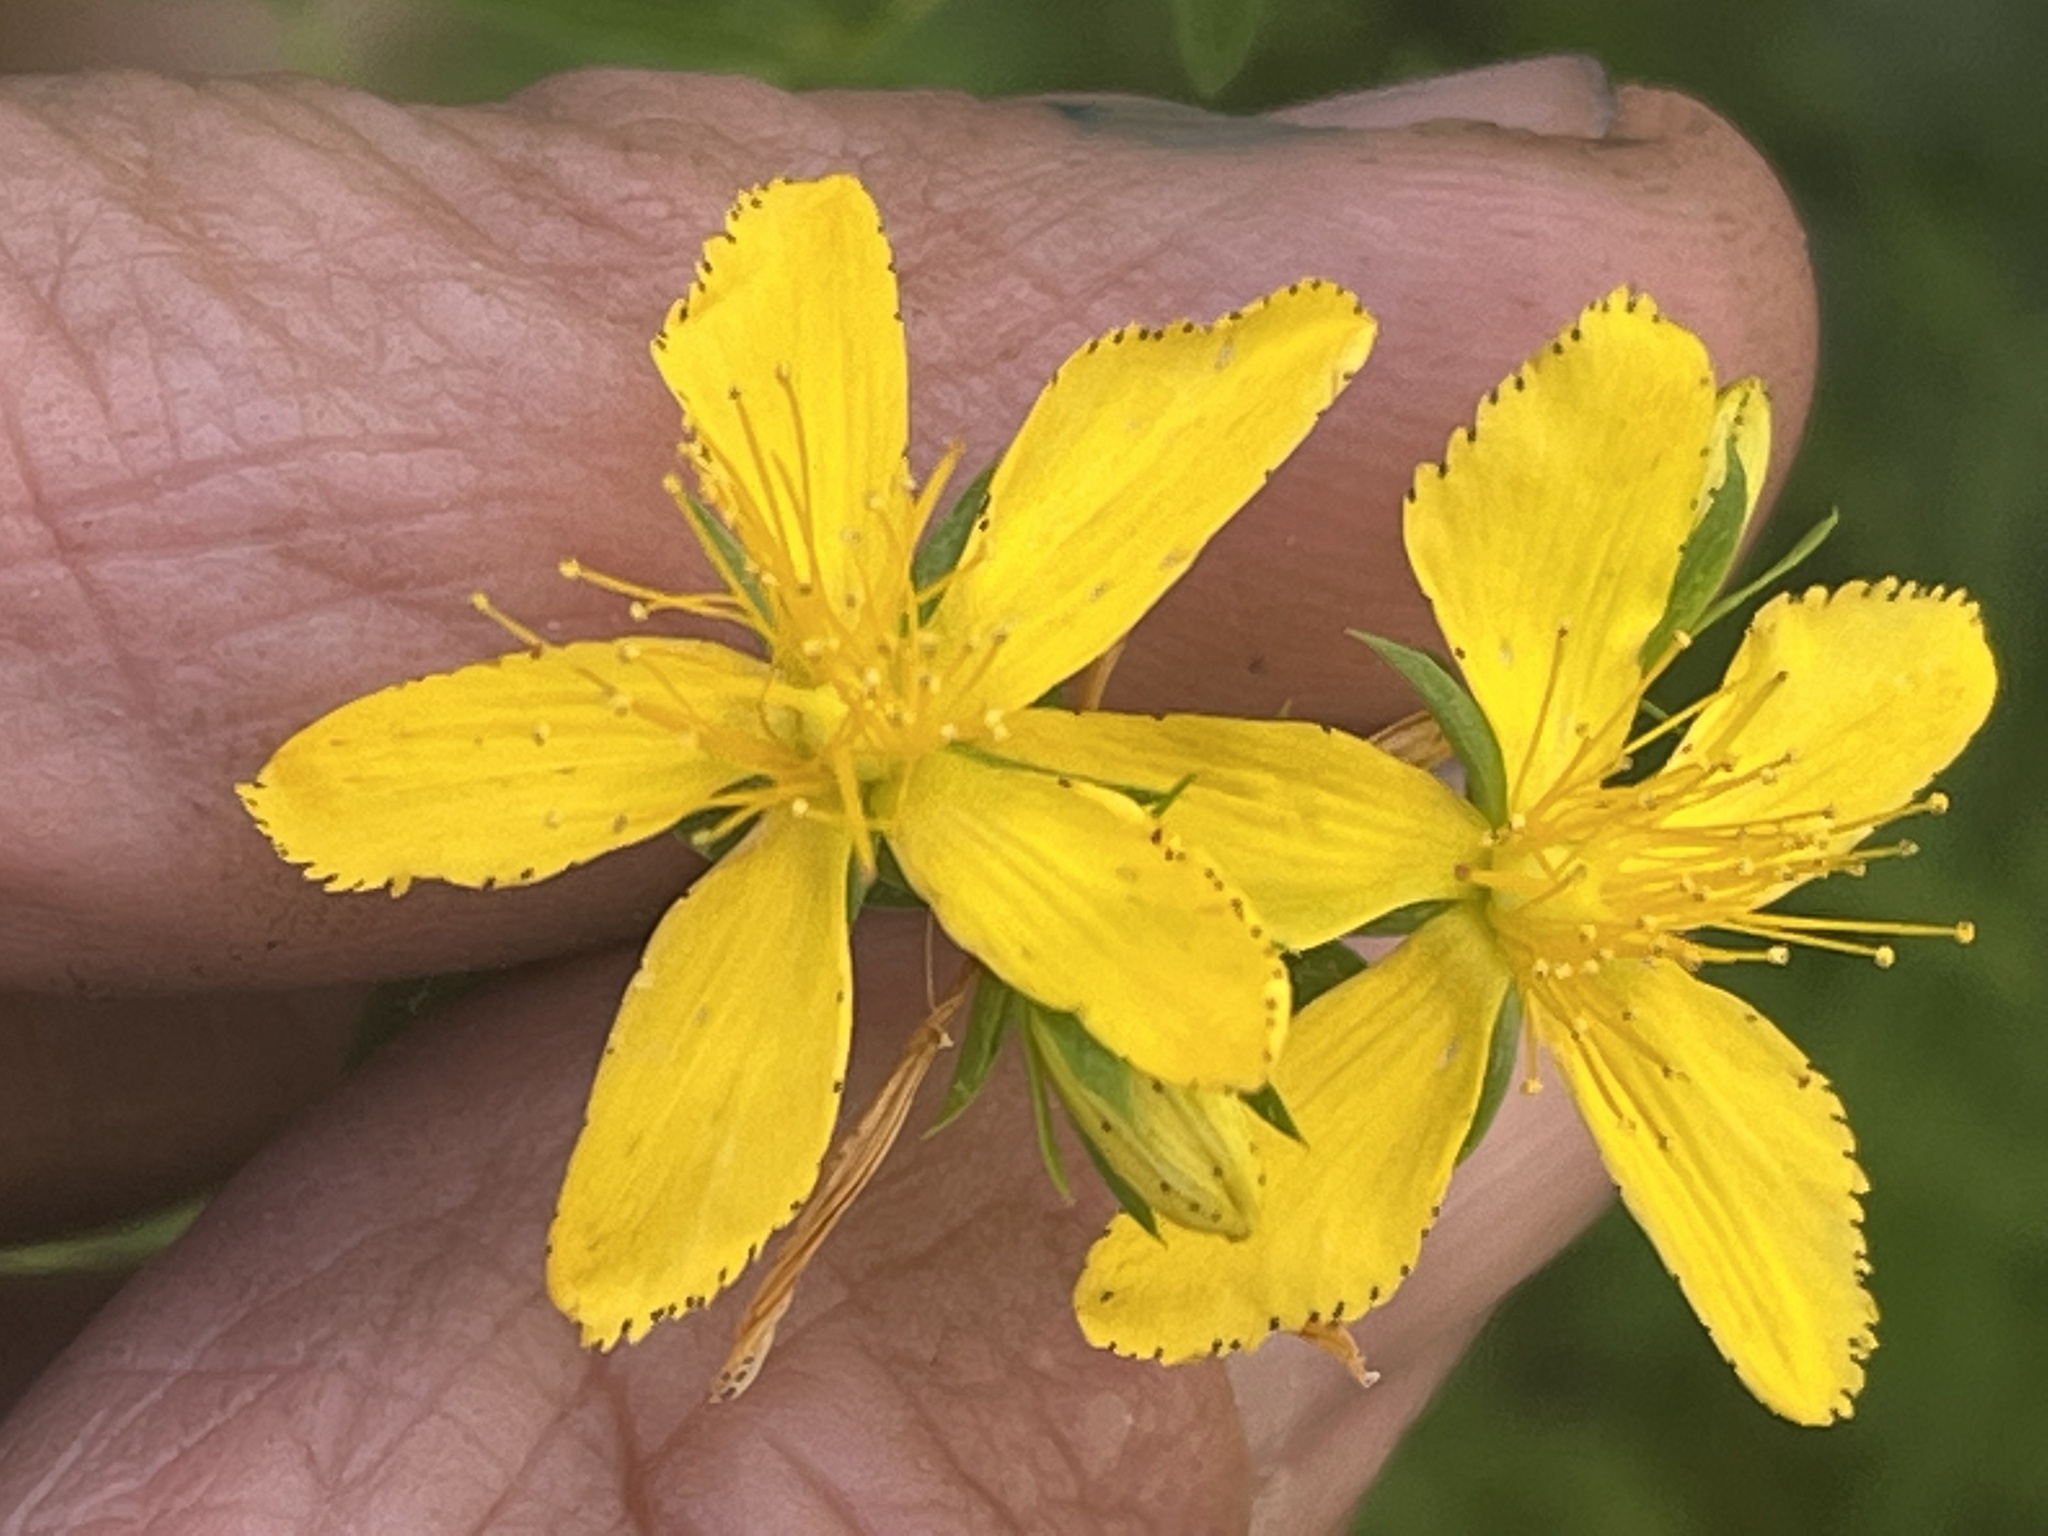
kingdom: Plantae
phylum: Tracheophyta
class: Magnoliopsida
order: Malpighiales
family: Hypericaceae
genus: Hypericum
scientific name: Hypericum perforatum
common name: Common st. johnswort
